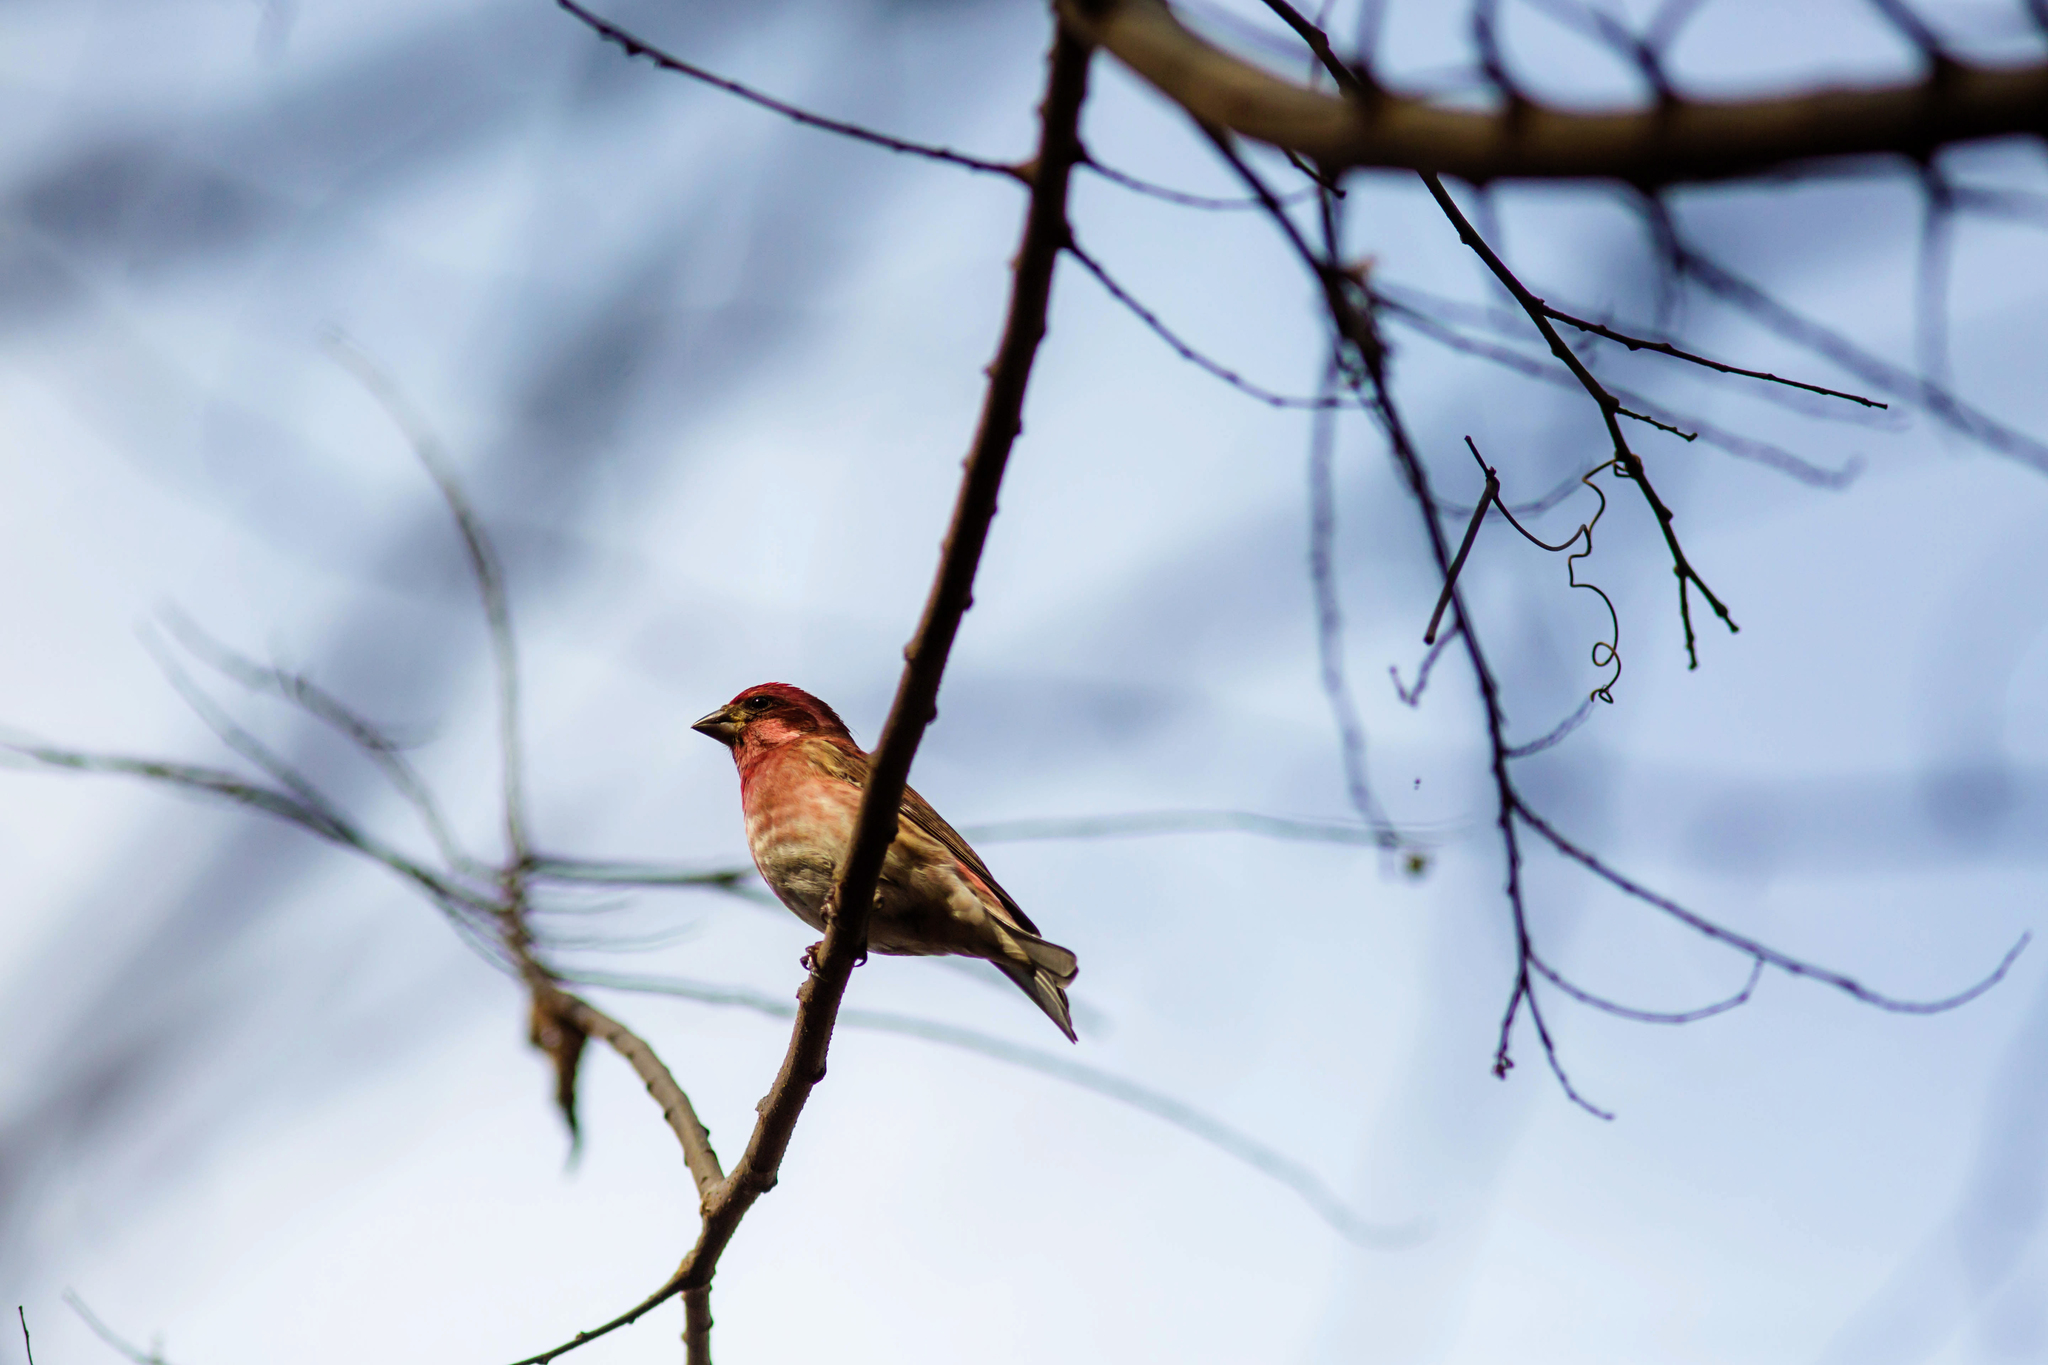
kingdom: Animalia
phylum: Chordata
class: Aves
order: Passeriformes
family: Fringillidae
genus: Haemorhous
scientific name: Haemorhous purpureus
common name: Purple finch
